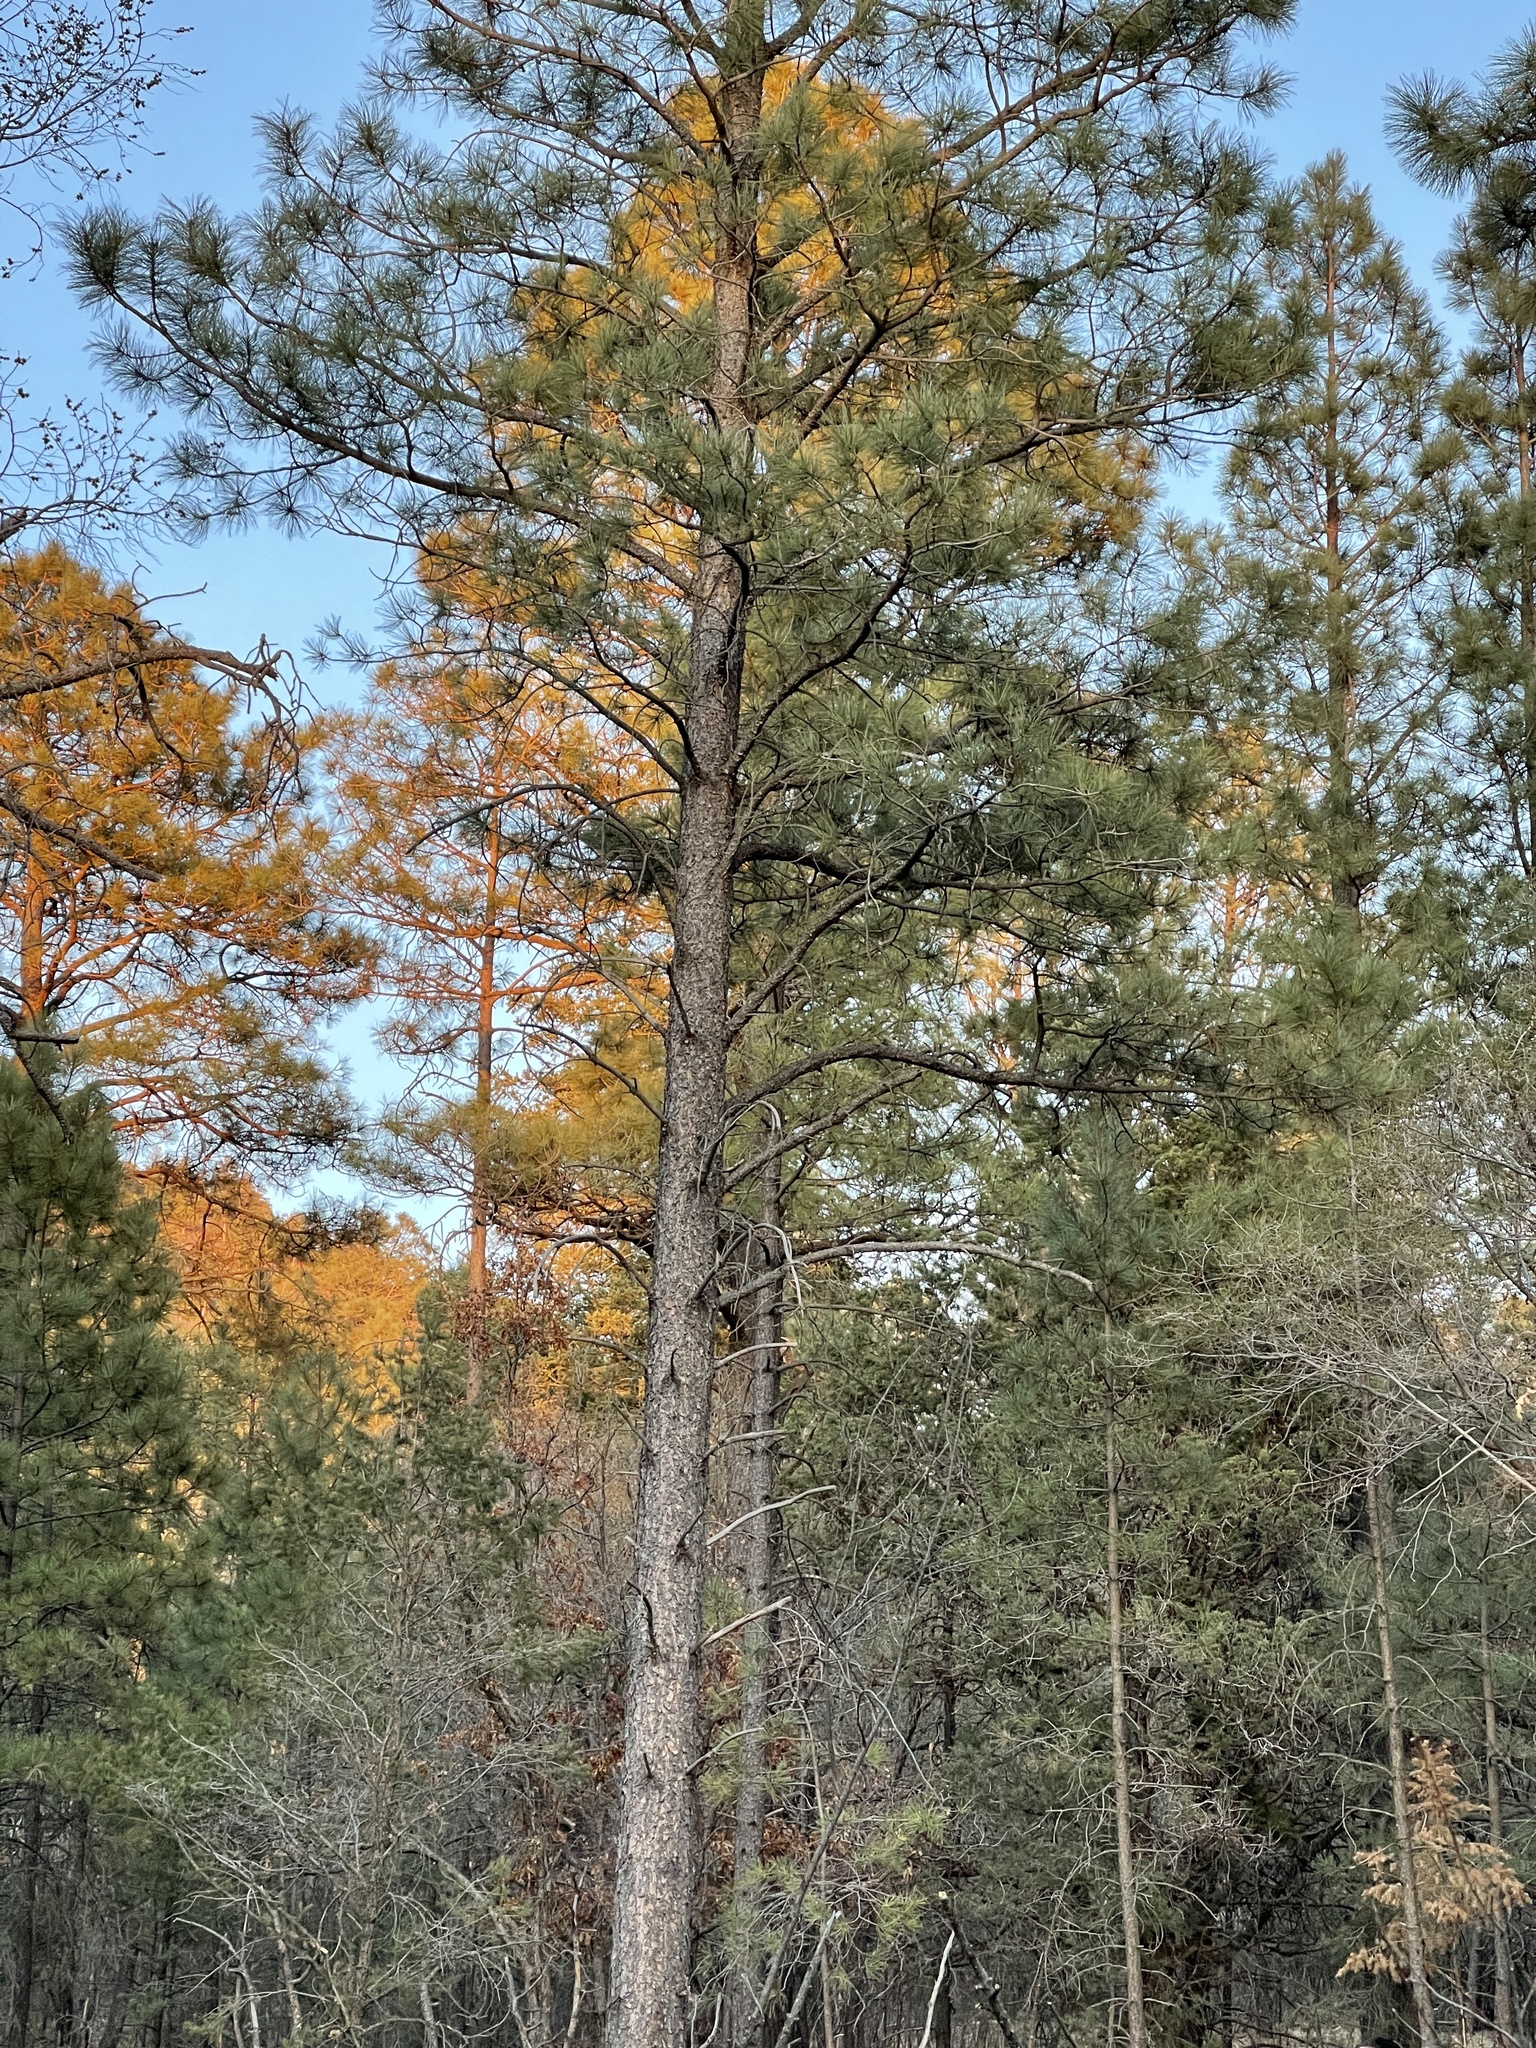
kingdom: Plantae
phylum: Tracheophyta
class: Pinopsida
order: Pinales
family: Pinaceae
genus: Pinus
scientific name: Pinus ponderosa
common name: Western yellow-pine
